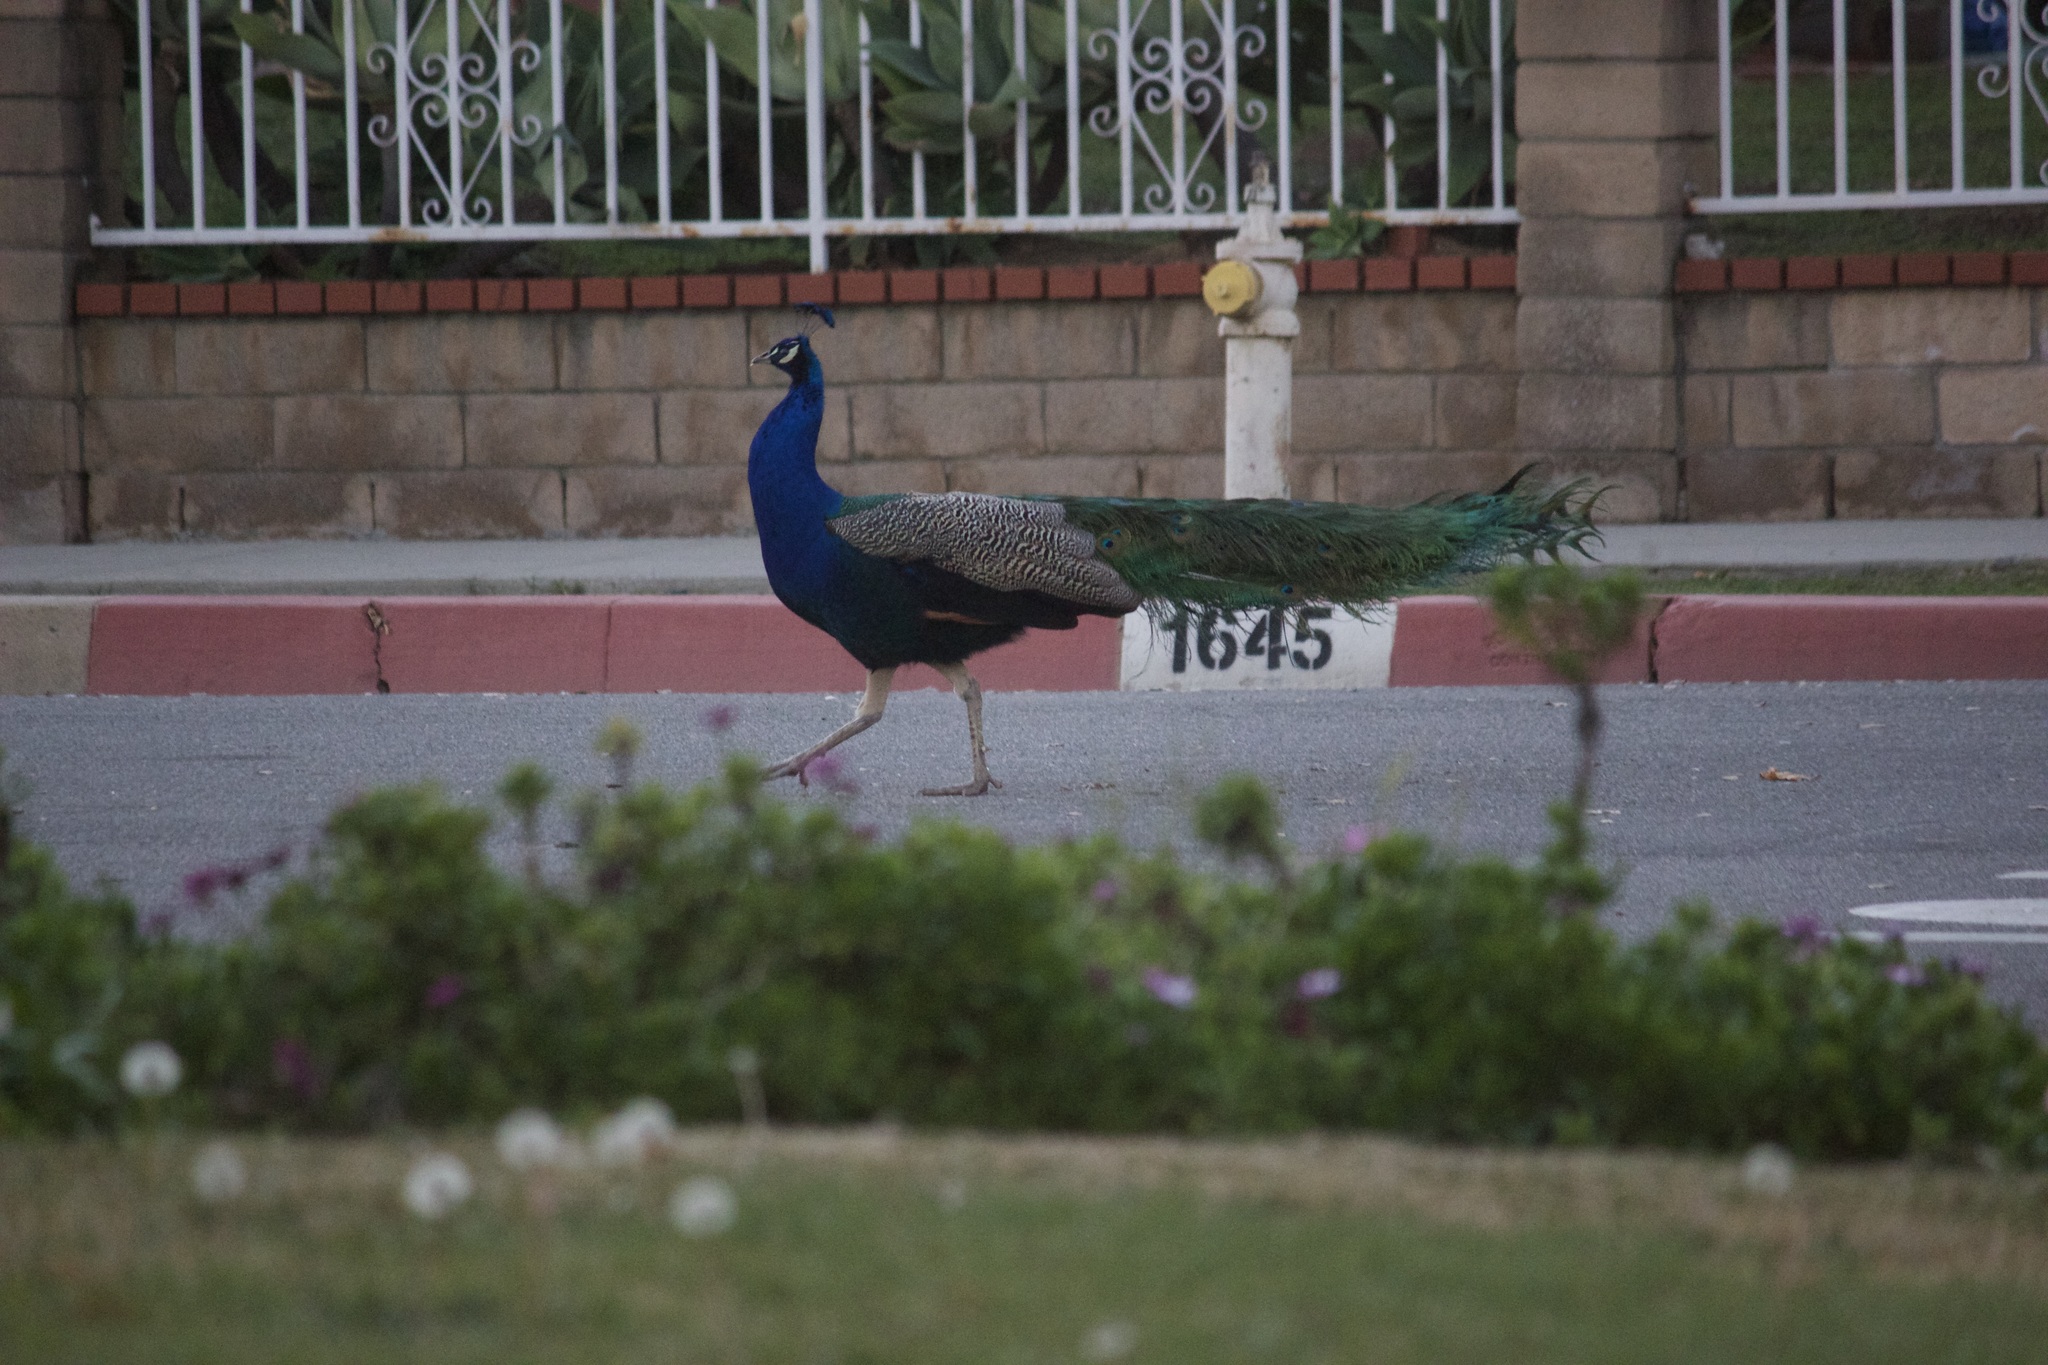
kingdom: Animalia
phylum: Chordata
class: Aves
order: Galliformes
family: Phasianidae
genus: Pavo
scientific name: Pavo cristatus
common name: Indian peafowl
